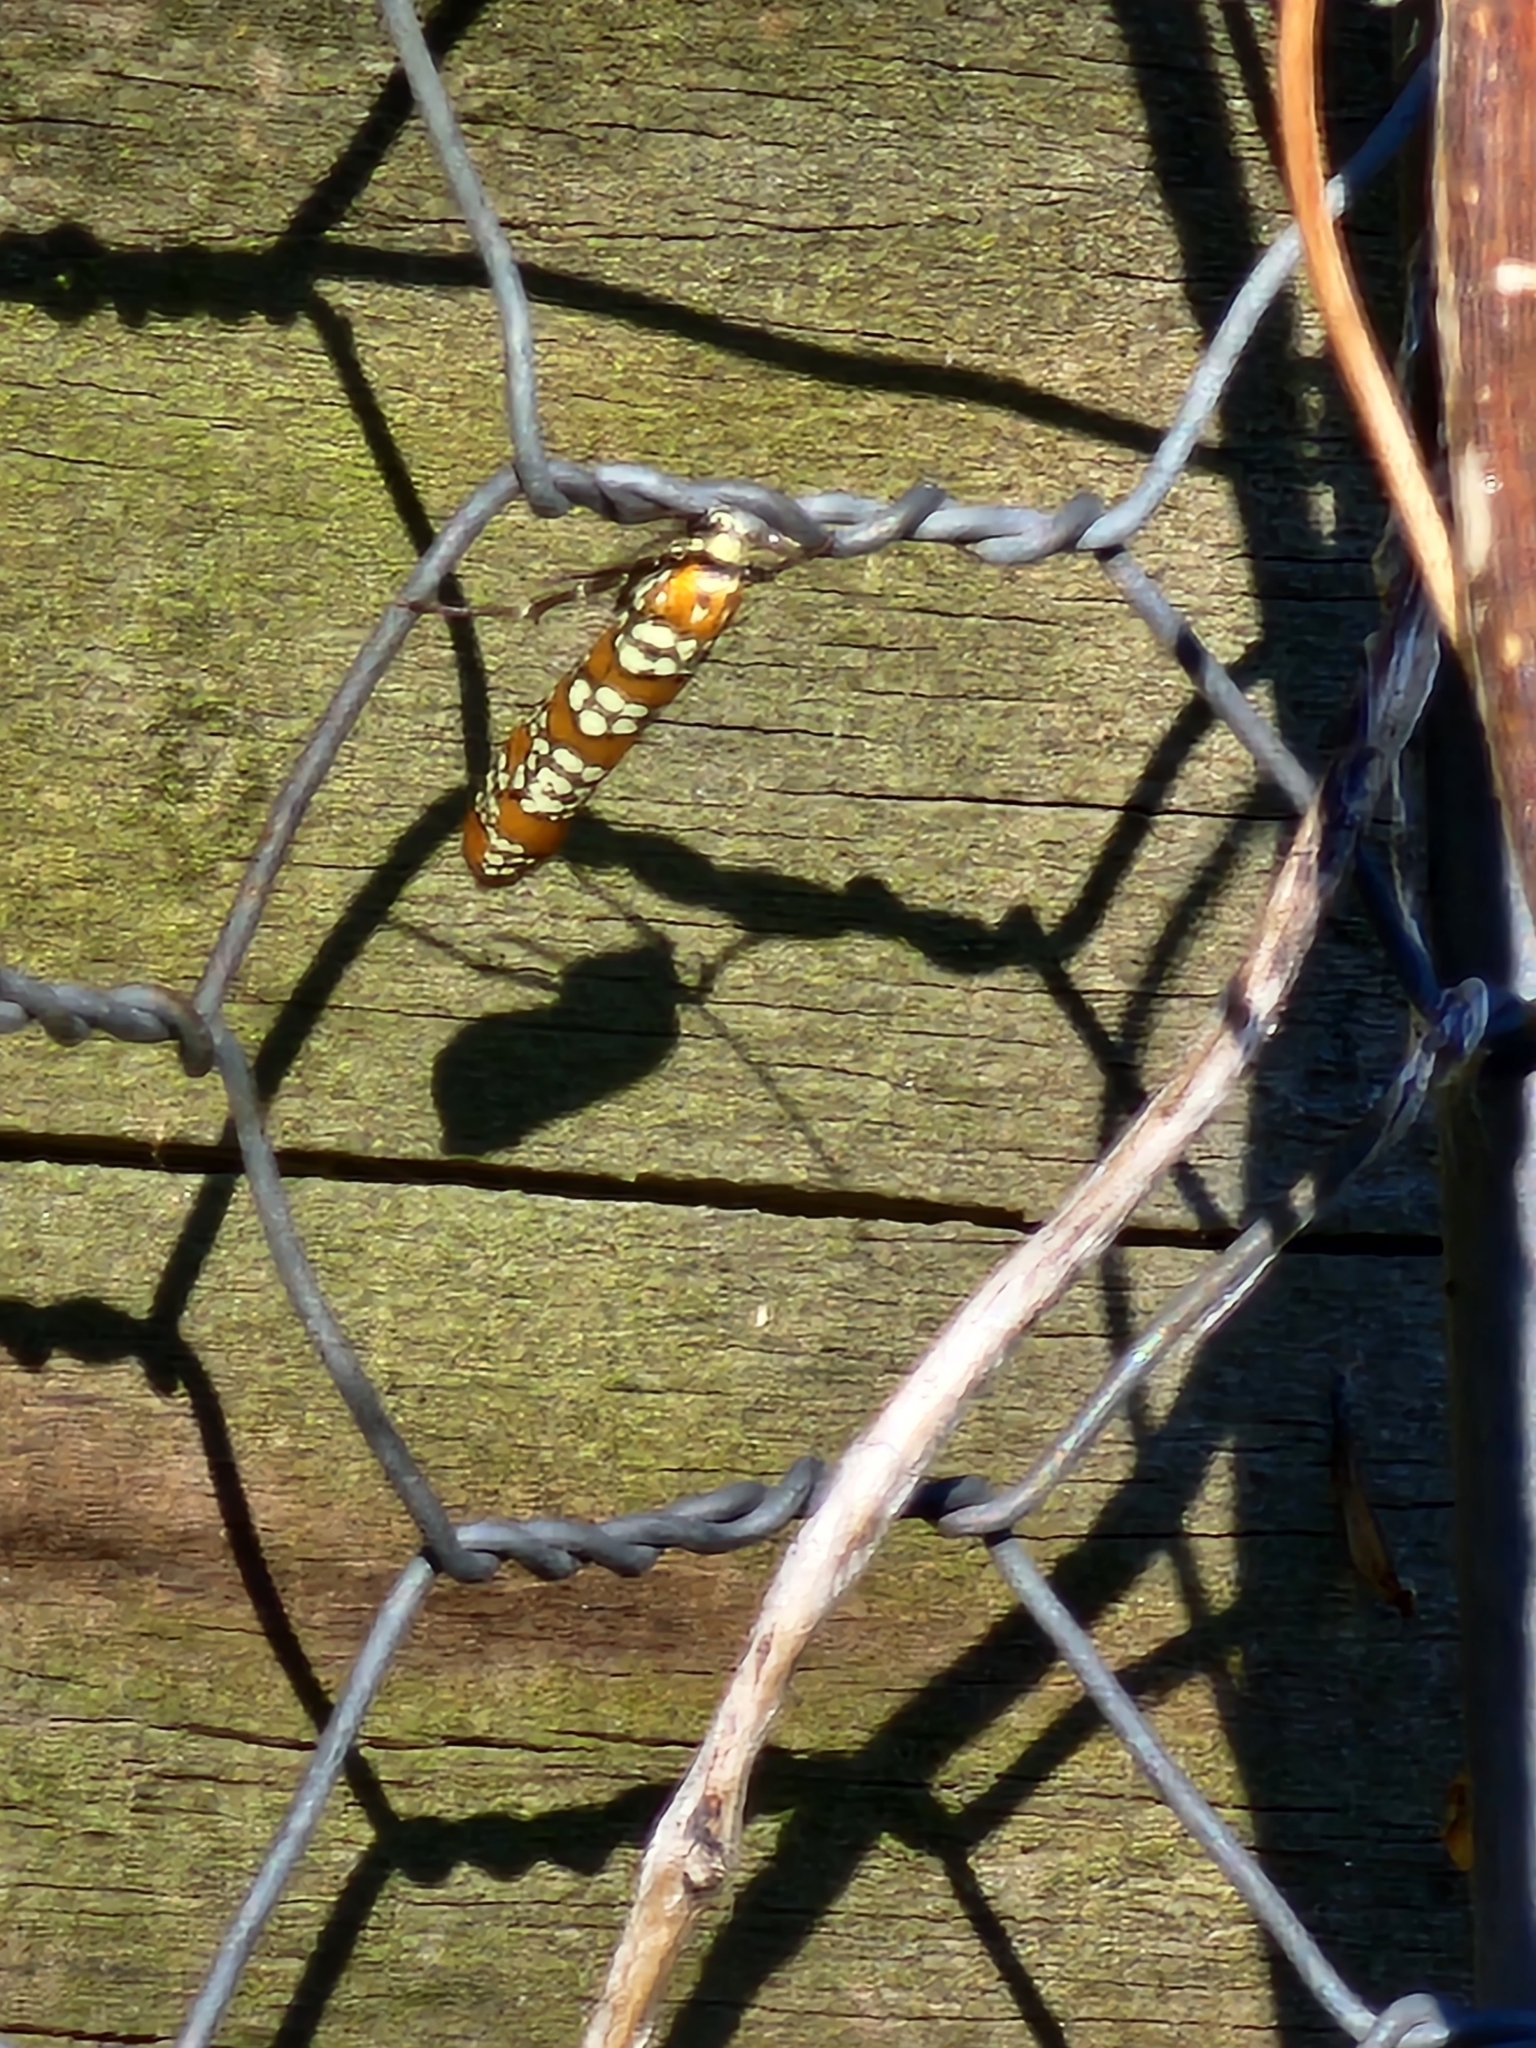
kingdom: Animalia
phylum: Arthropoda
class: Insecta
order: Lepidoptera
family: Attevidae
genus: Atteva
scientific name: Atteva punctella
